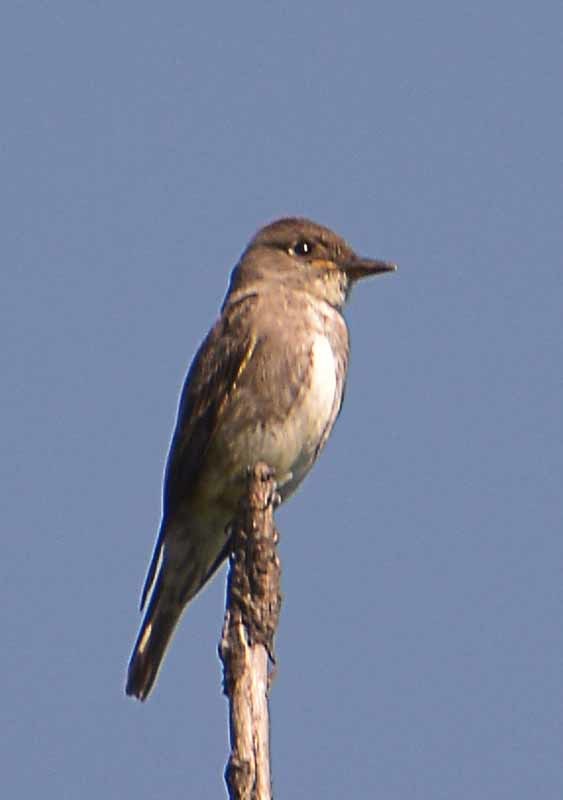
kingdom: Animalia
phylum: Chordata
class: Aves
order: Passeriformes
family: Tyrannidae
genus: Contopus
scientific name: Contopus cooperi
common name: Olive-sided flycatcher
